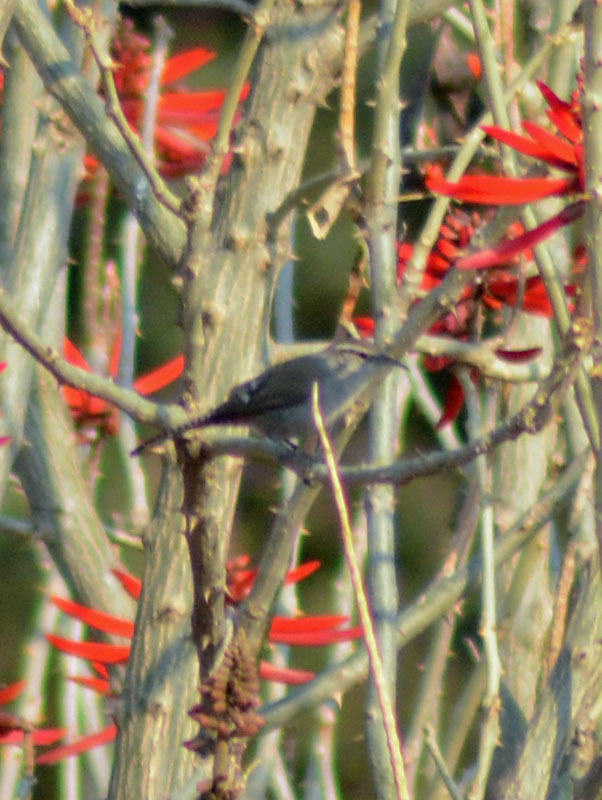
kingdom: Animalia
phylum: Chordata
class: Aves
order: Passeriformes
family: Troglodytidae
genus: Thryomanes
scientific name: Thryomanes bewickii
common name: Bewick's wren
